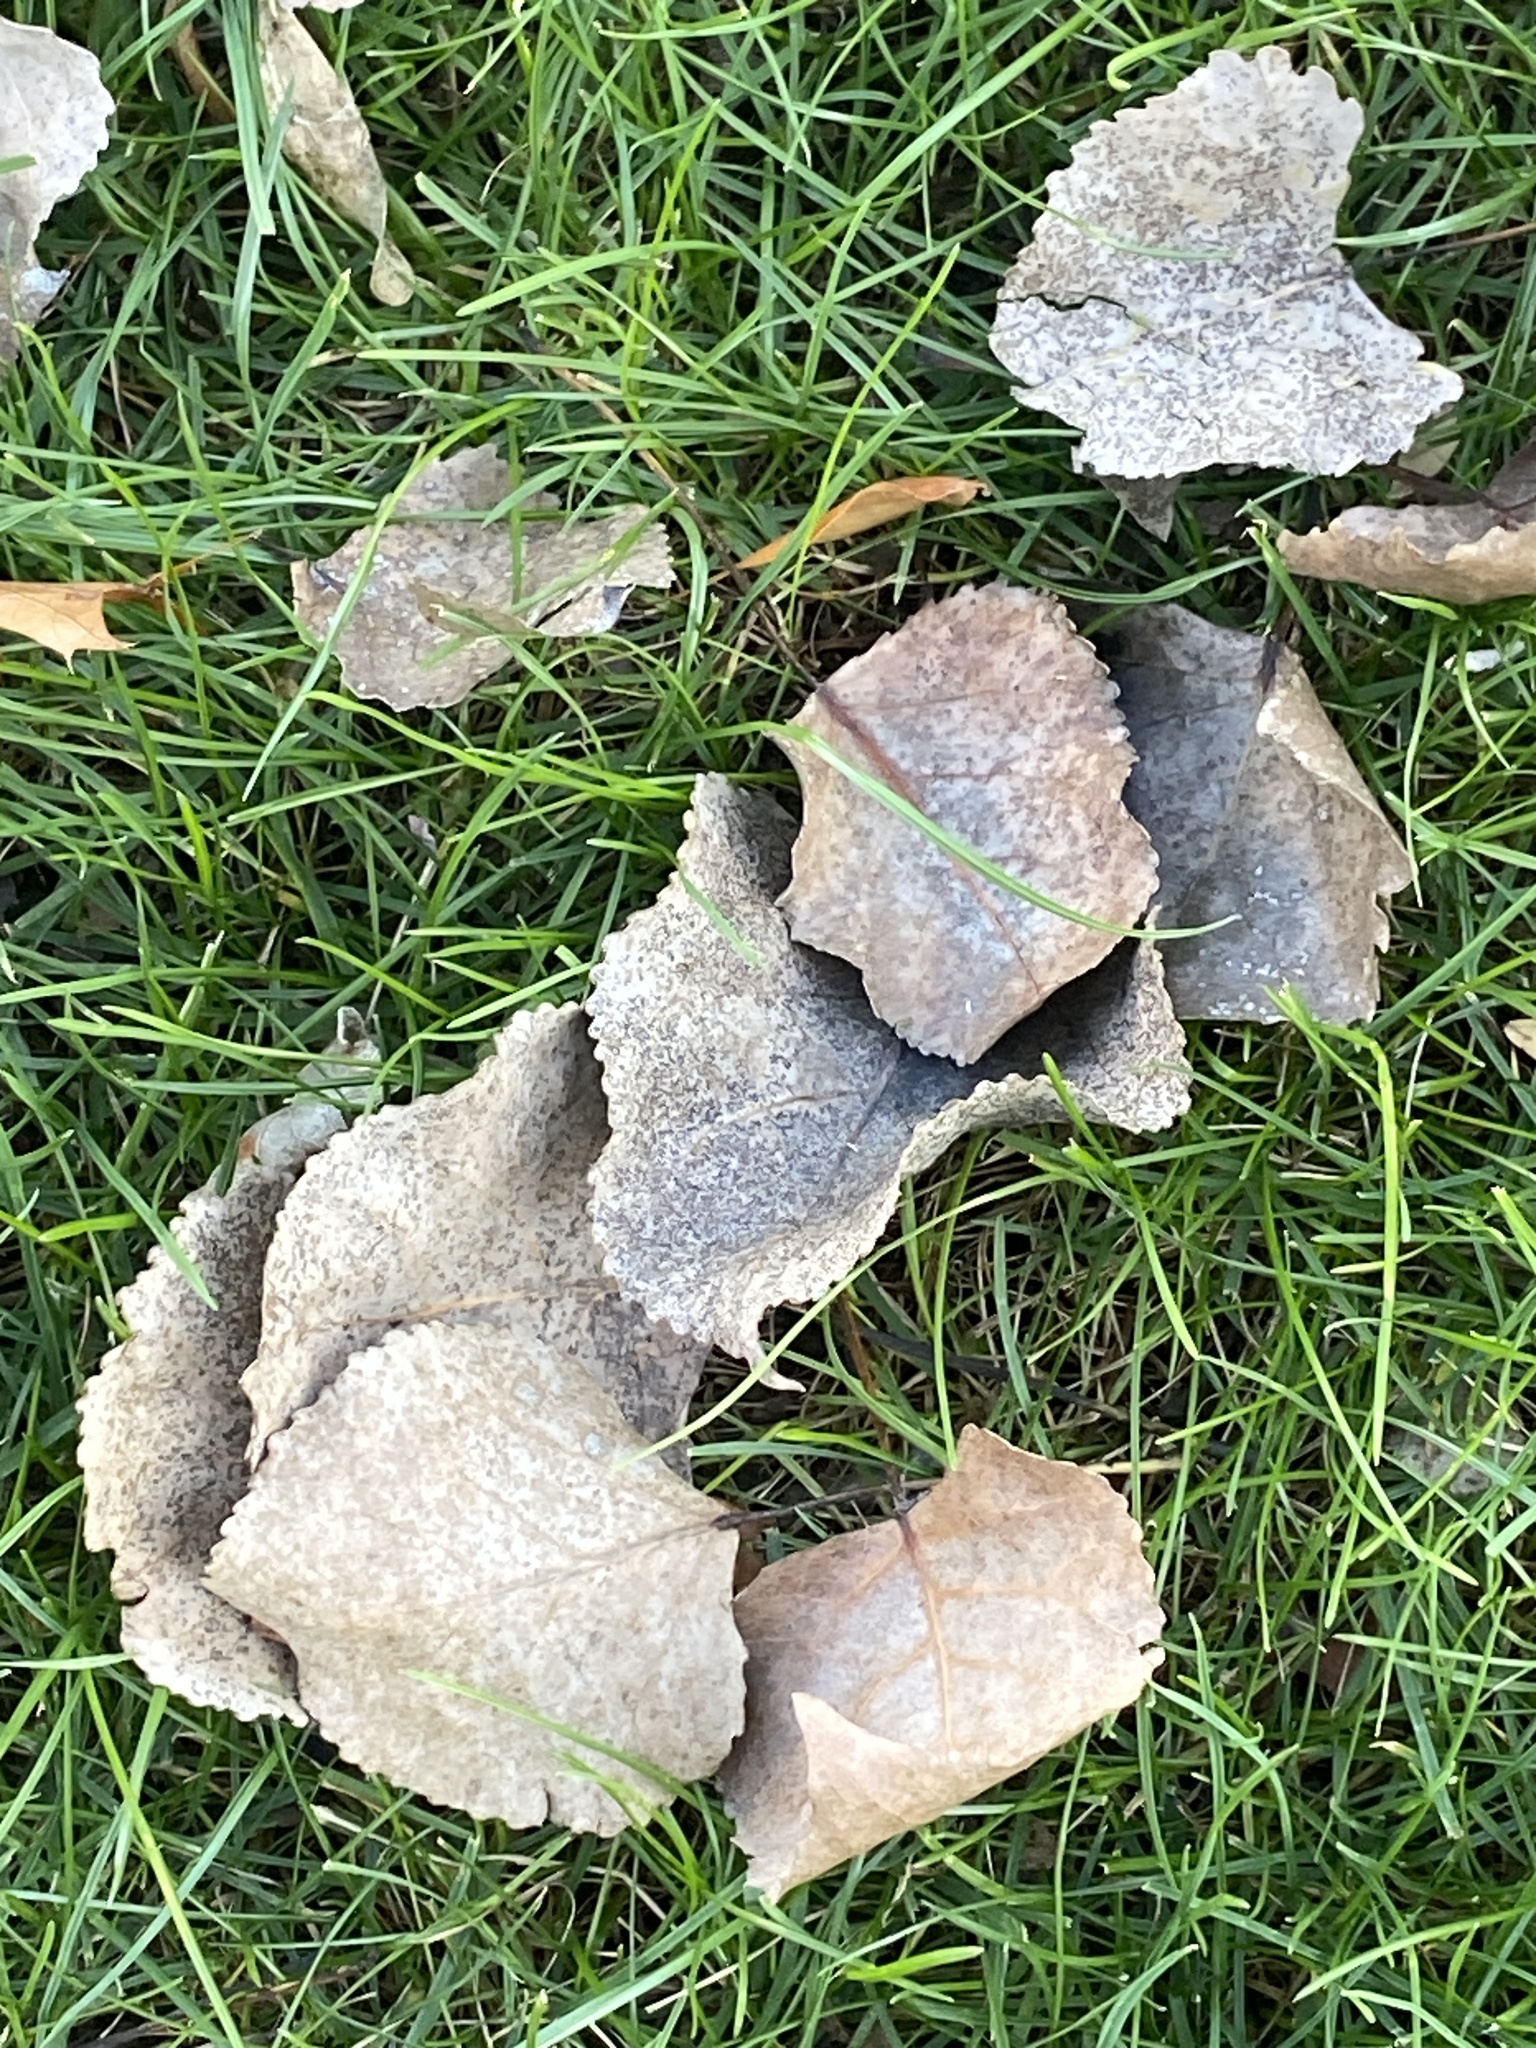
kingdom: Plantae
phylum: Tracheophyta
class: Magnoliopsida
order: Malpighiales
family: Salicaceae
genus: Populus
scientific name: Populus deltoides
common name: Eastern cottonwood
